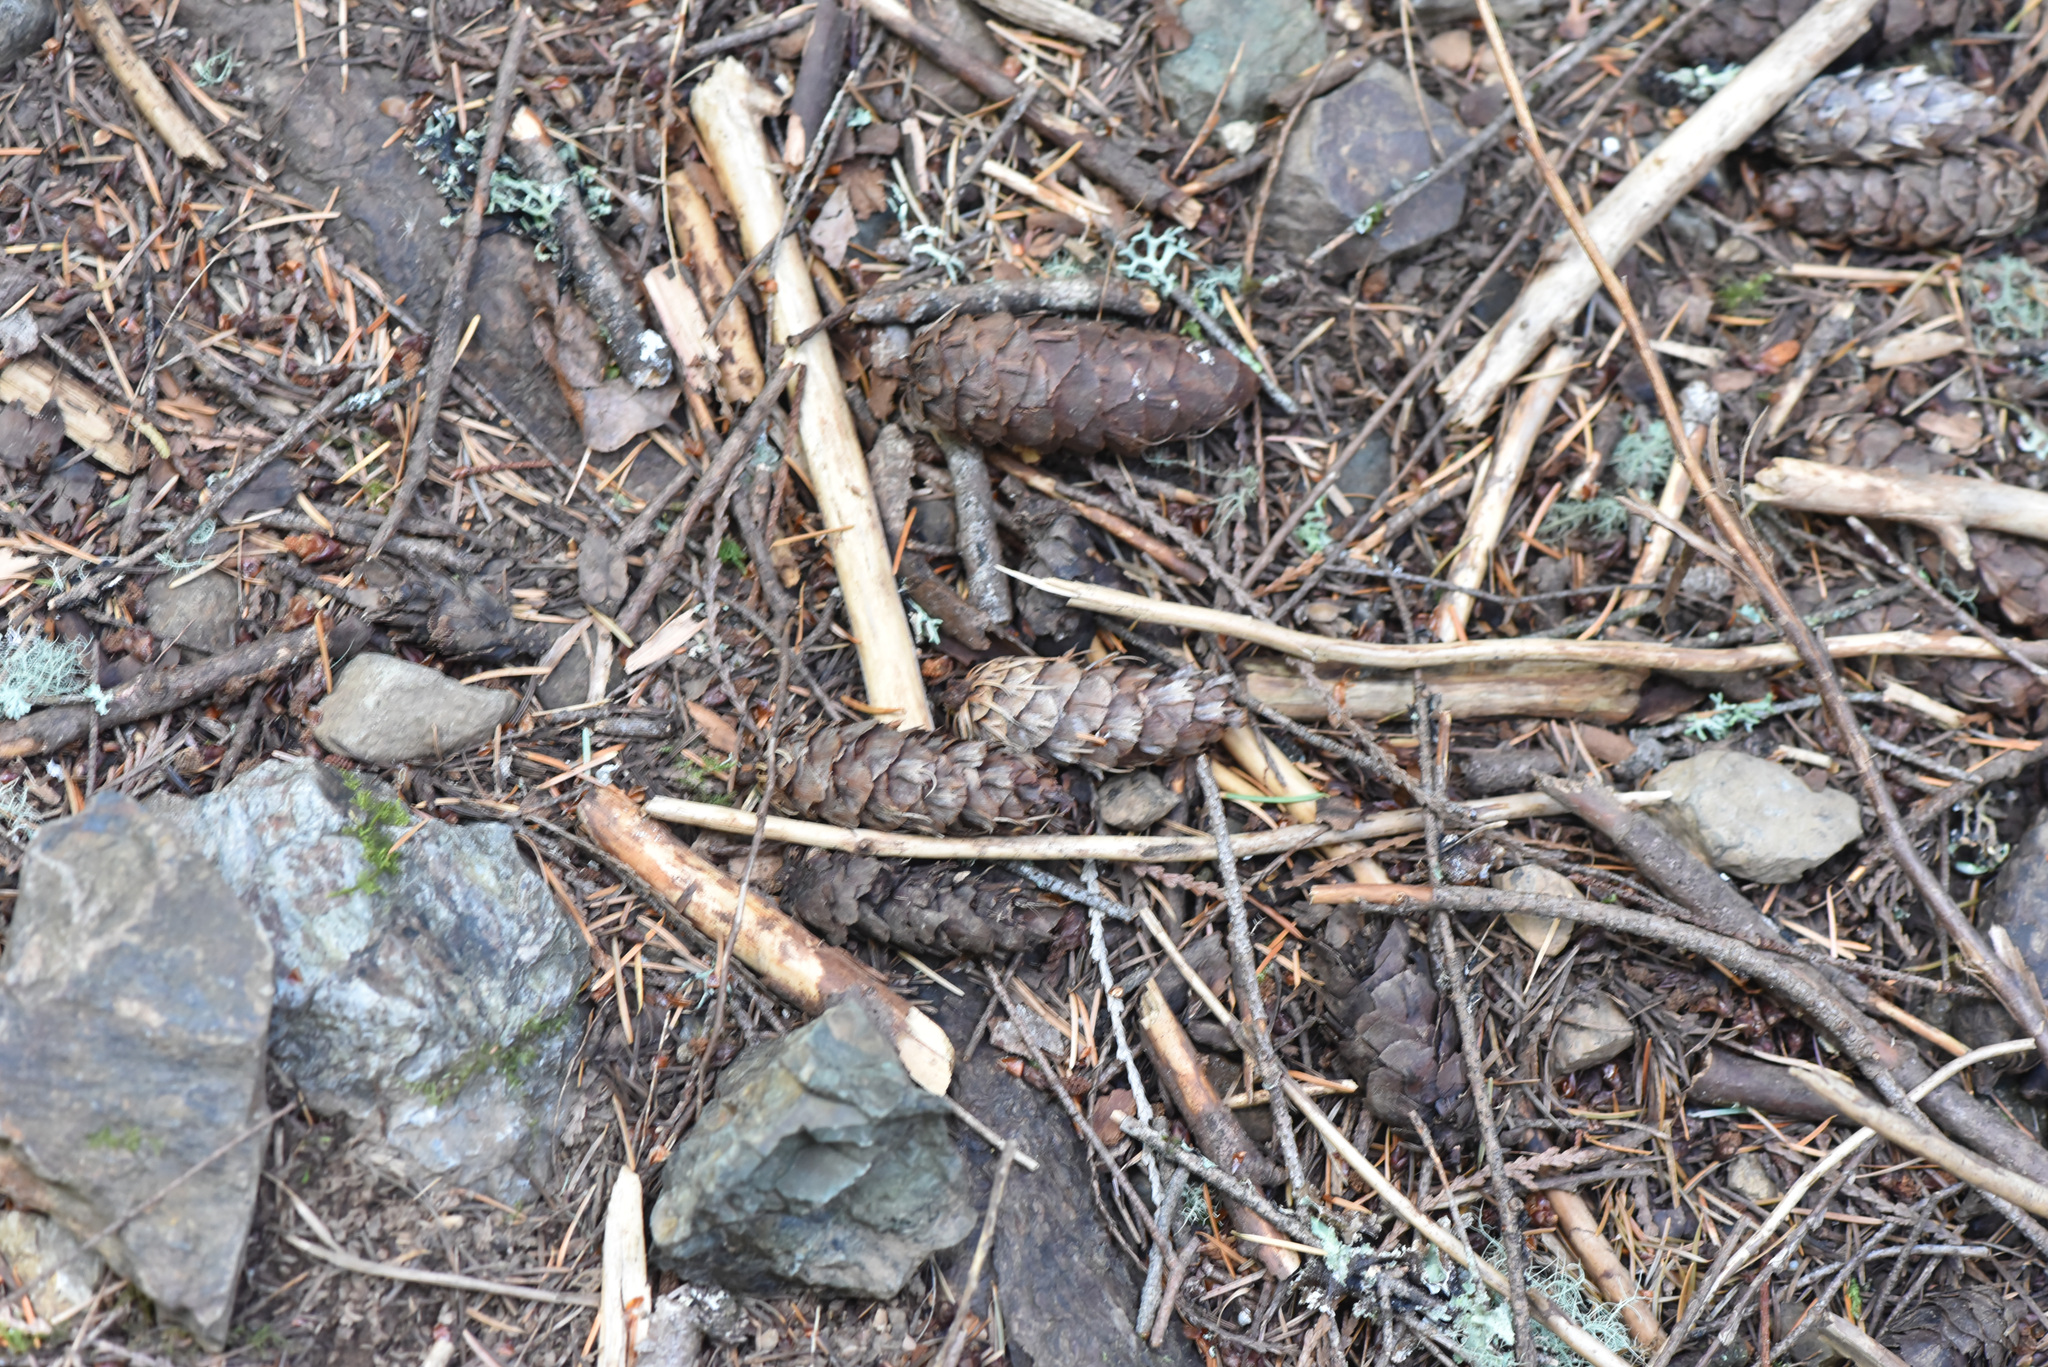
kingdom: Plantae
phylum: Tracheophyta
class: Pinopsida
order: Pinales
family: Pinaceae
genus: Pseudotsuga
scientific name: Pseudotsuga menziesii
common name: Douglas fir
